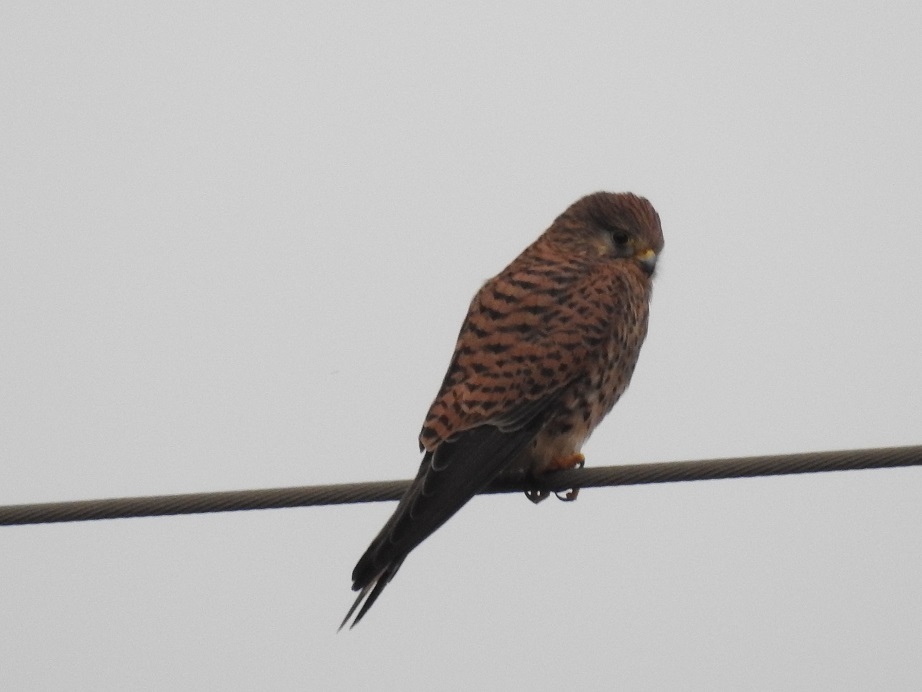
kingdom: Animalia
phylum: Chordata
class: Aves
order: Falconiformes
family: Falconidae
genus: Falco
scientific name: Falco tinnunculus
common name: Common kestrel
